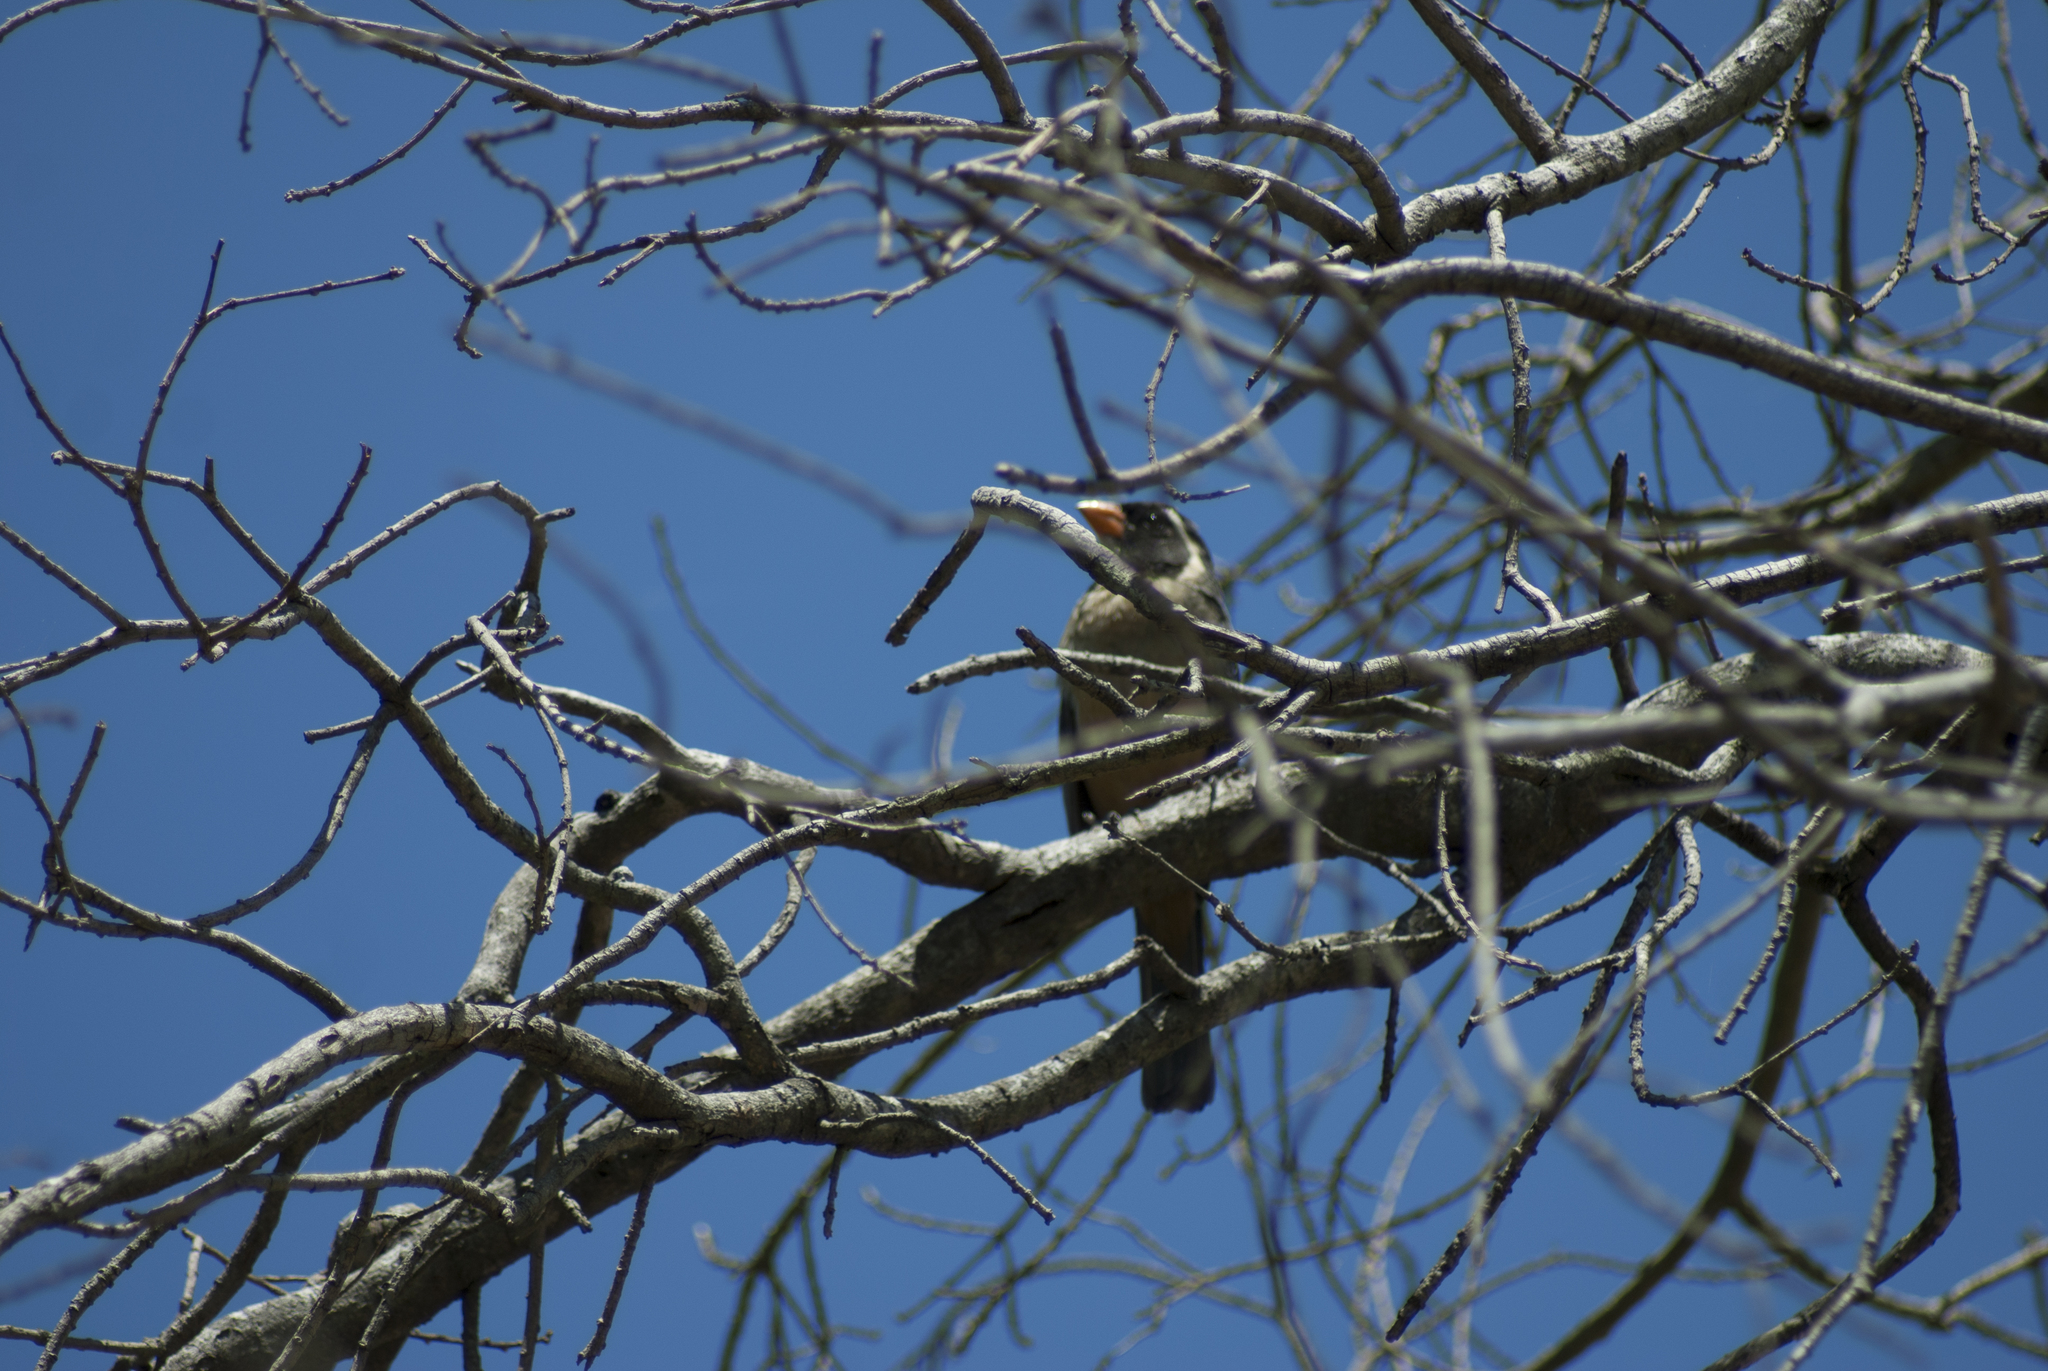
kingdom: Animalia
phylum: Chordata
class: Aves
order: Passeriformes
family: Thraupidae
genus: Saltator
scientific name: Saltator aurantiirostris
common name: Golden-billed saltator
